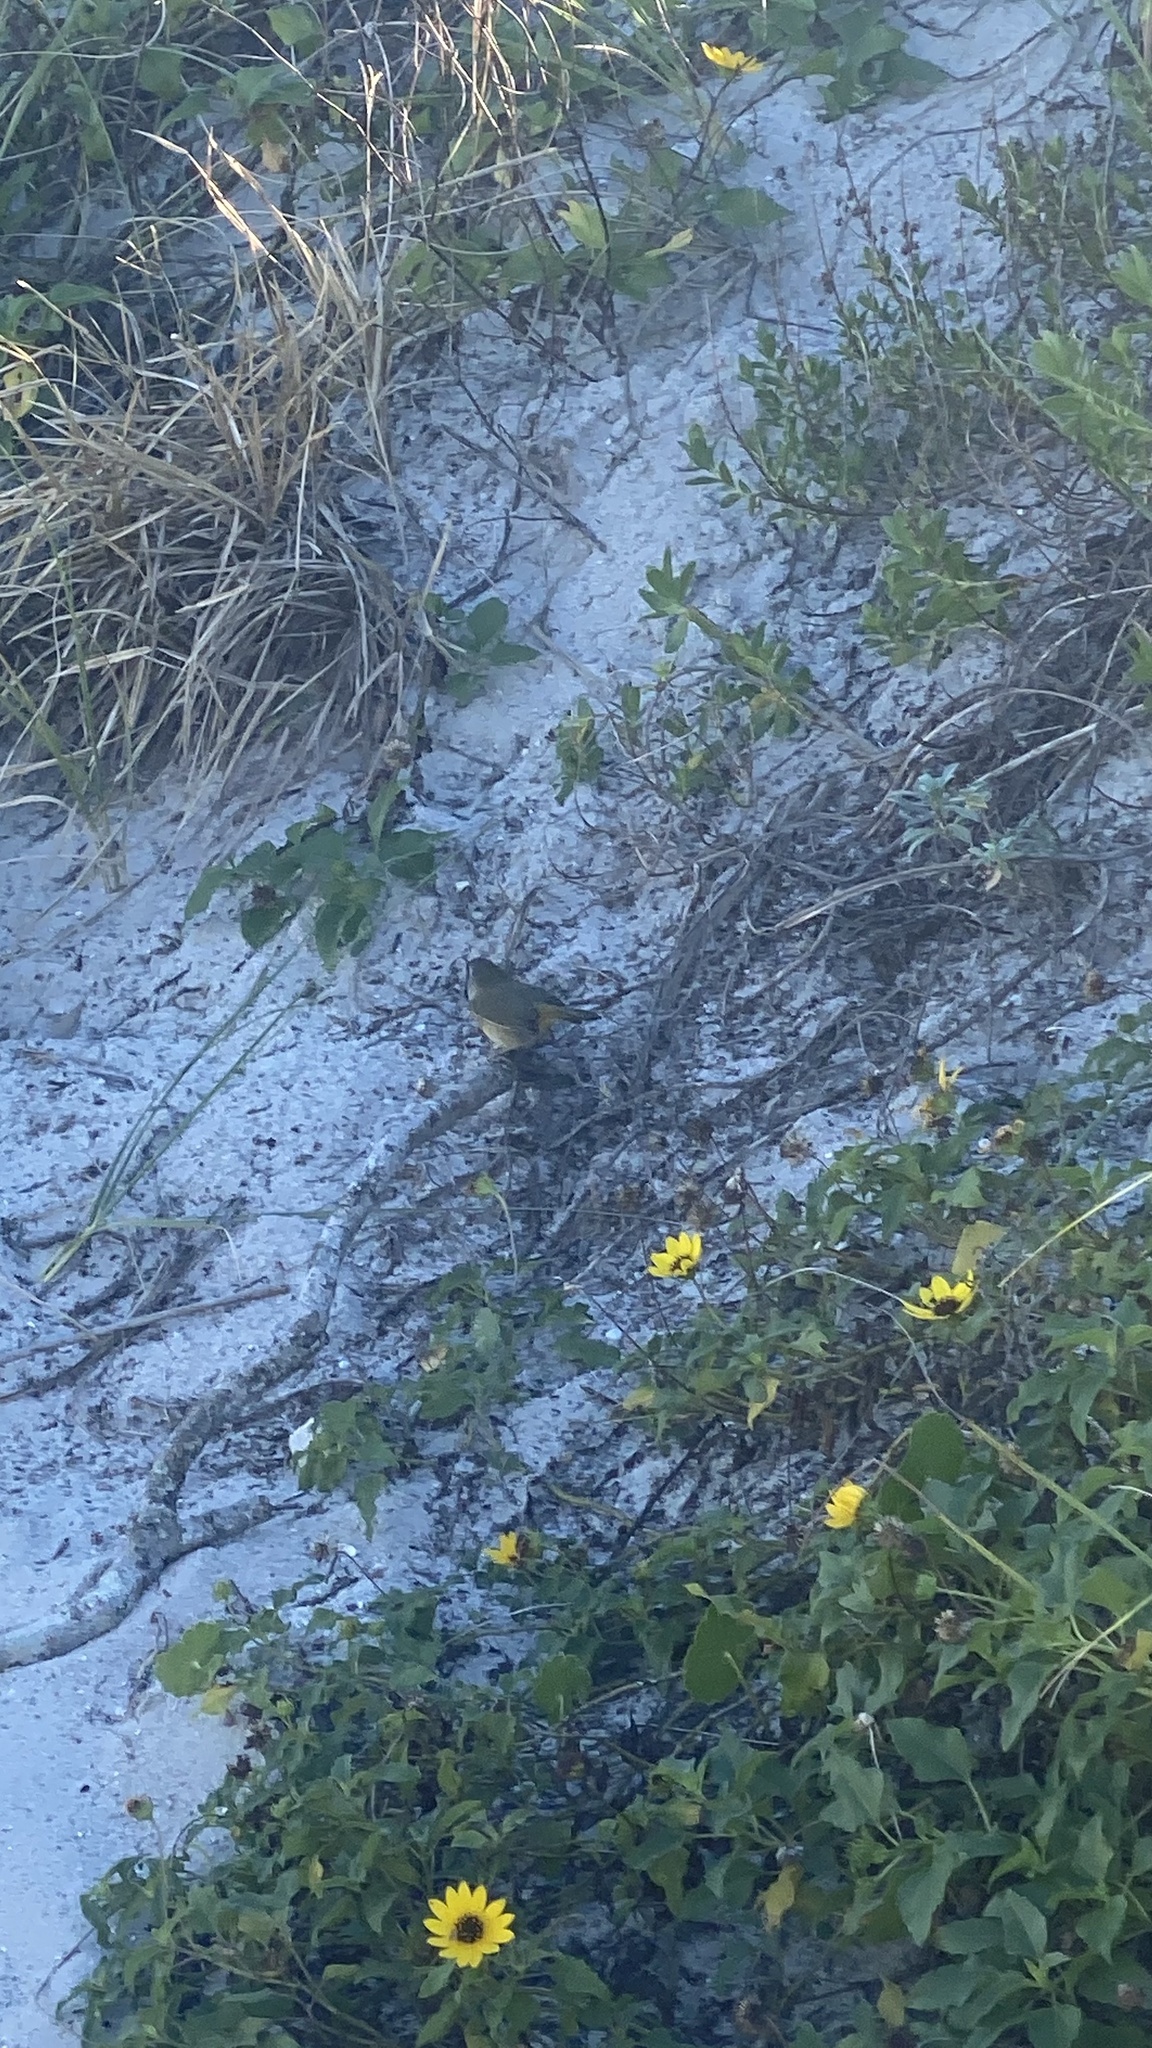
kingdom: Animalia
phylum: Chordata
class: Aves
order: Passeriformes
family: Parulidae
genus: Setophaga
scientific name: Setophaga palmarum
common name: Palm warbler
